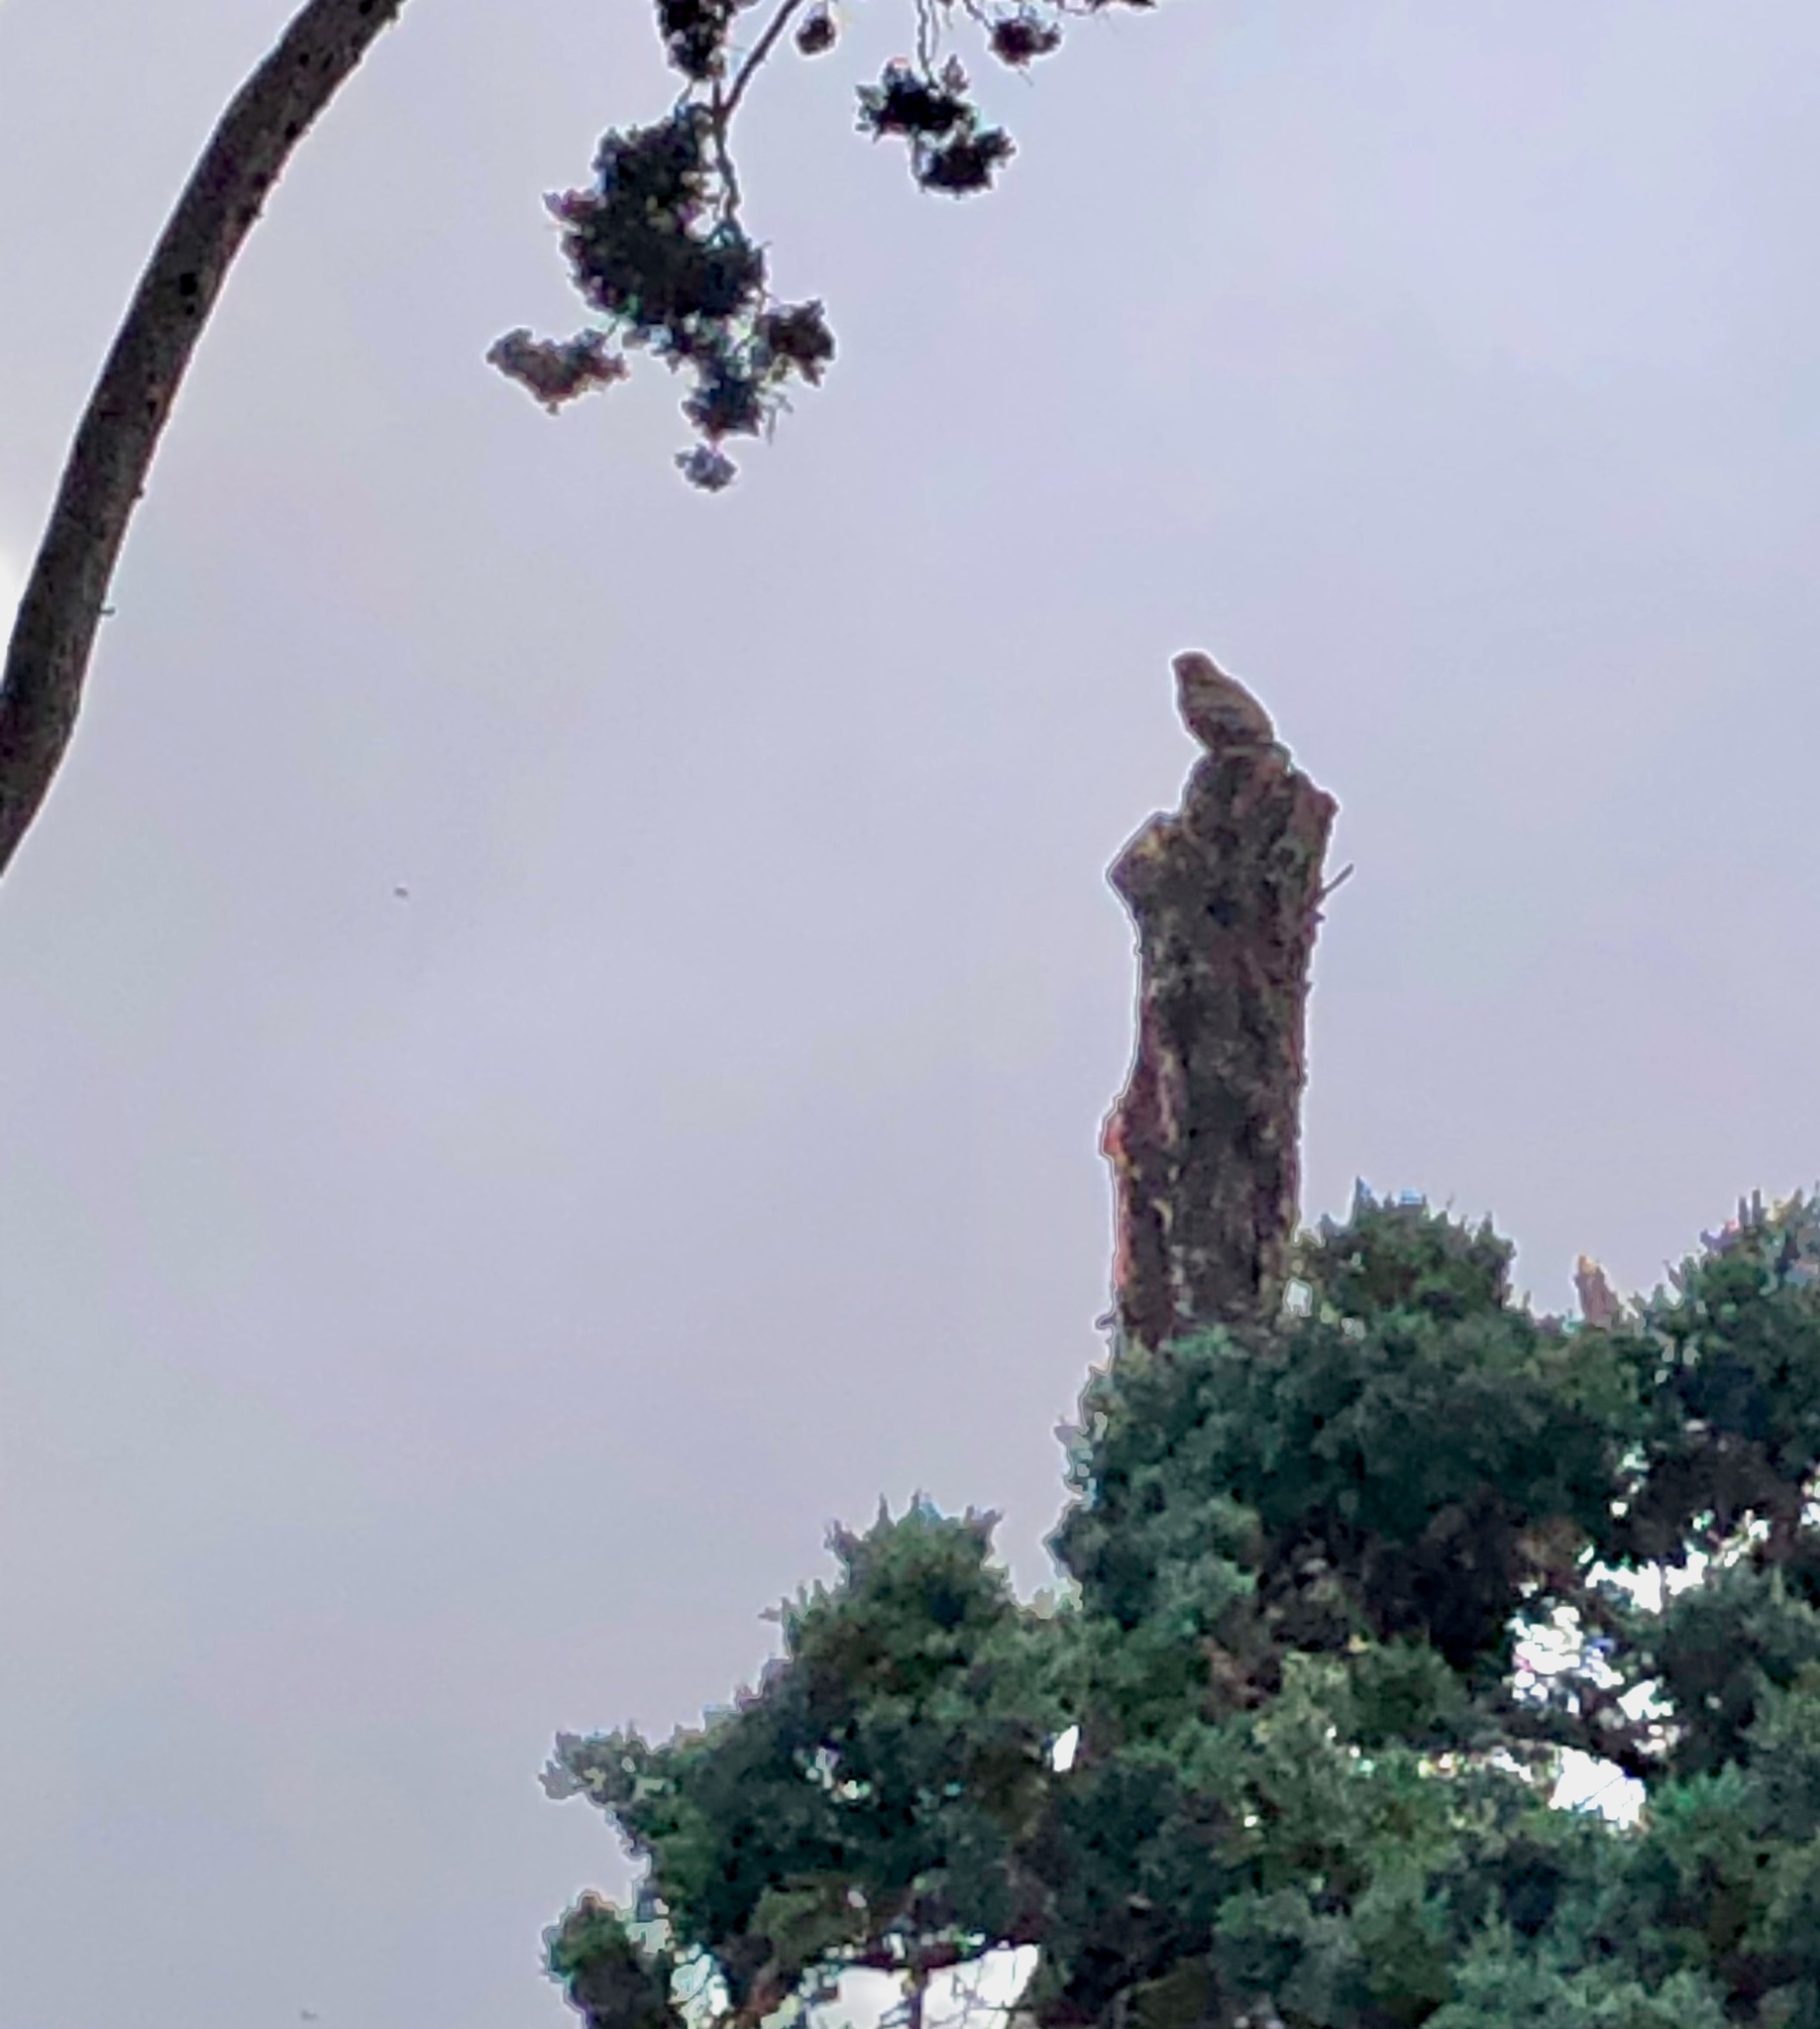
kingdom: Animalia
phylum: Chordata
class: Aves
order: Accipitriformes
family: Accipitridae
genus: Buteo
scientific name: Buteo lineatus
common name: Red-shouldered hawk
